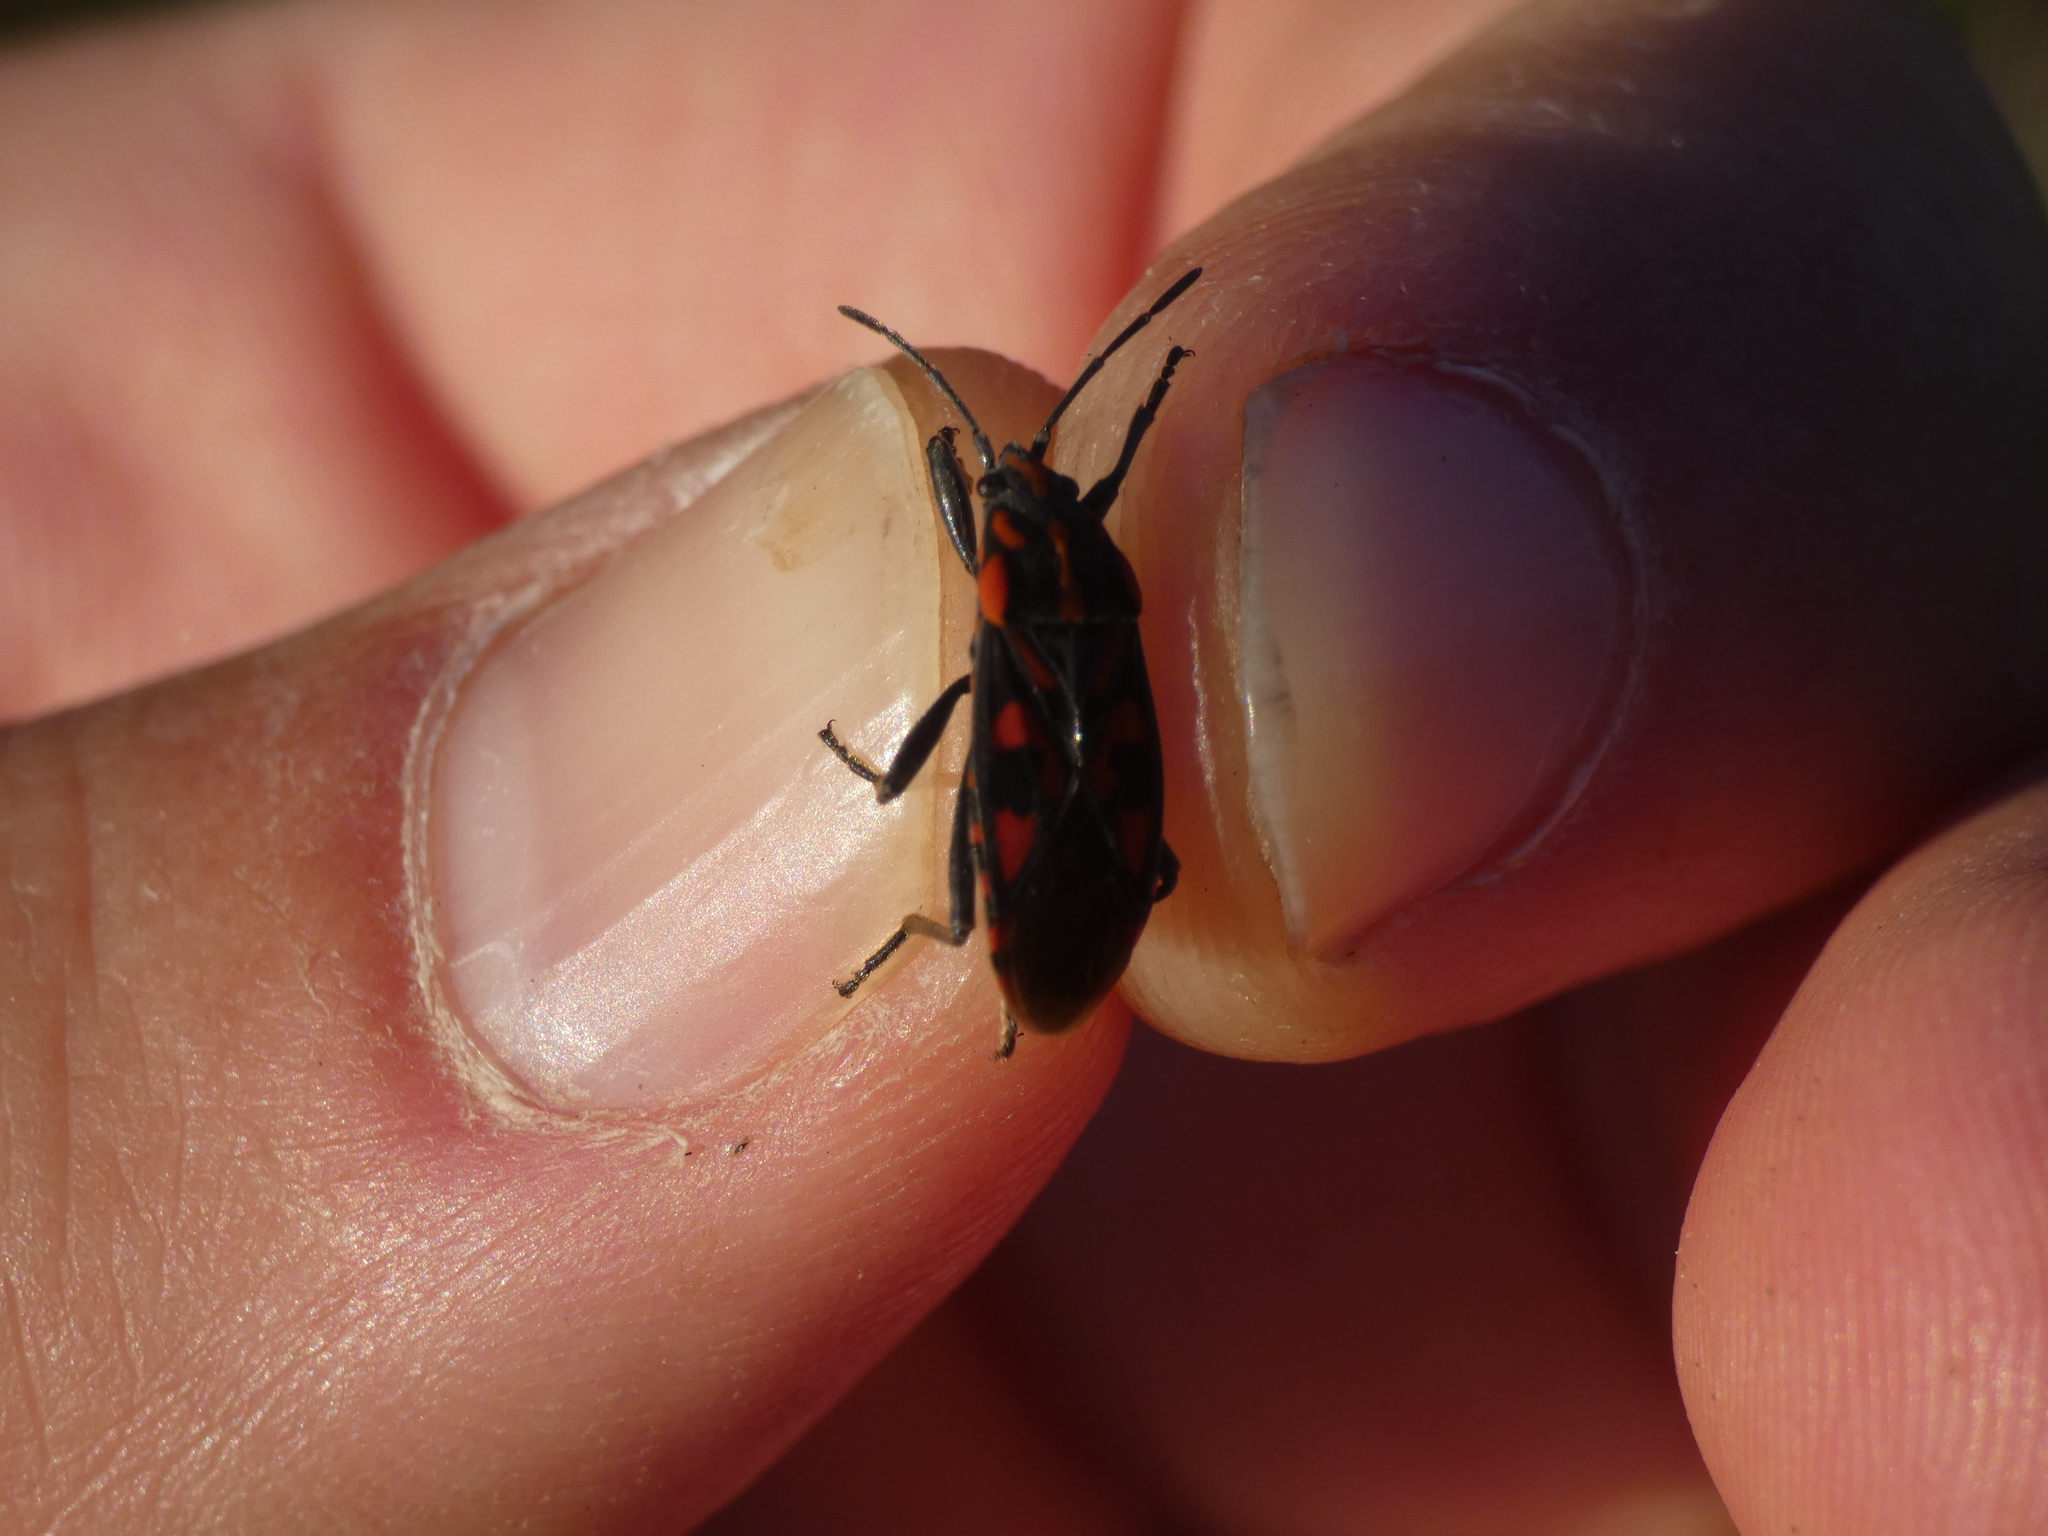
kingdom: Animalia
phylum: Arthropoda
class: Insecta
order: Hemiptera
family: Lygaeidae
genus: Spilostethus
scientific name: Spilostethus saxatilis
